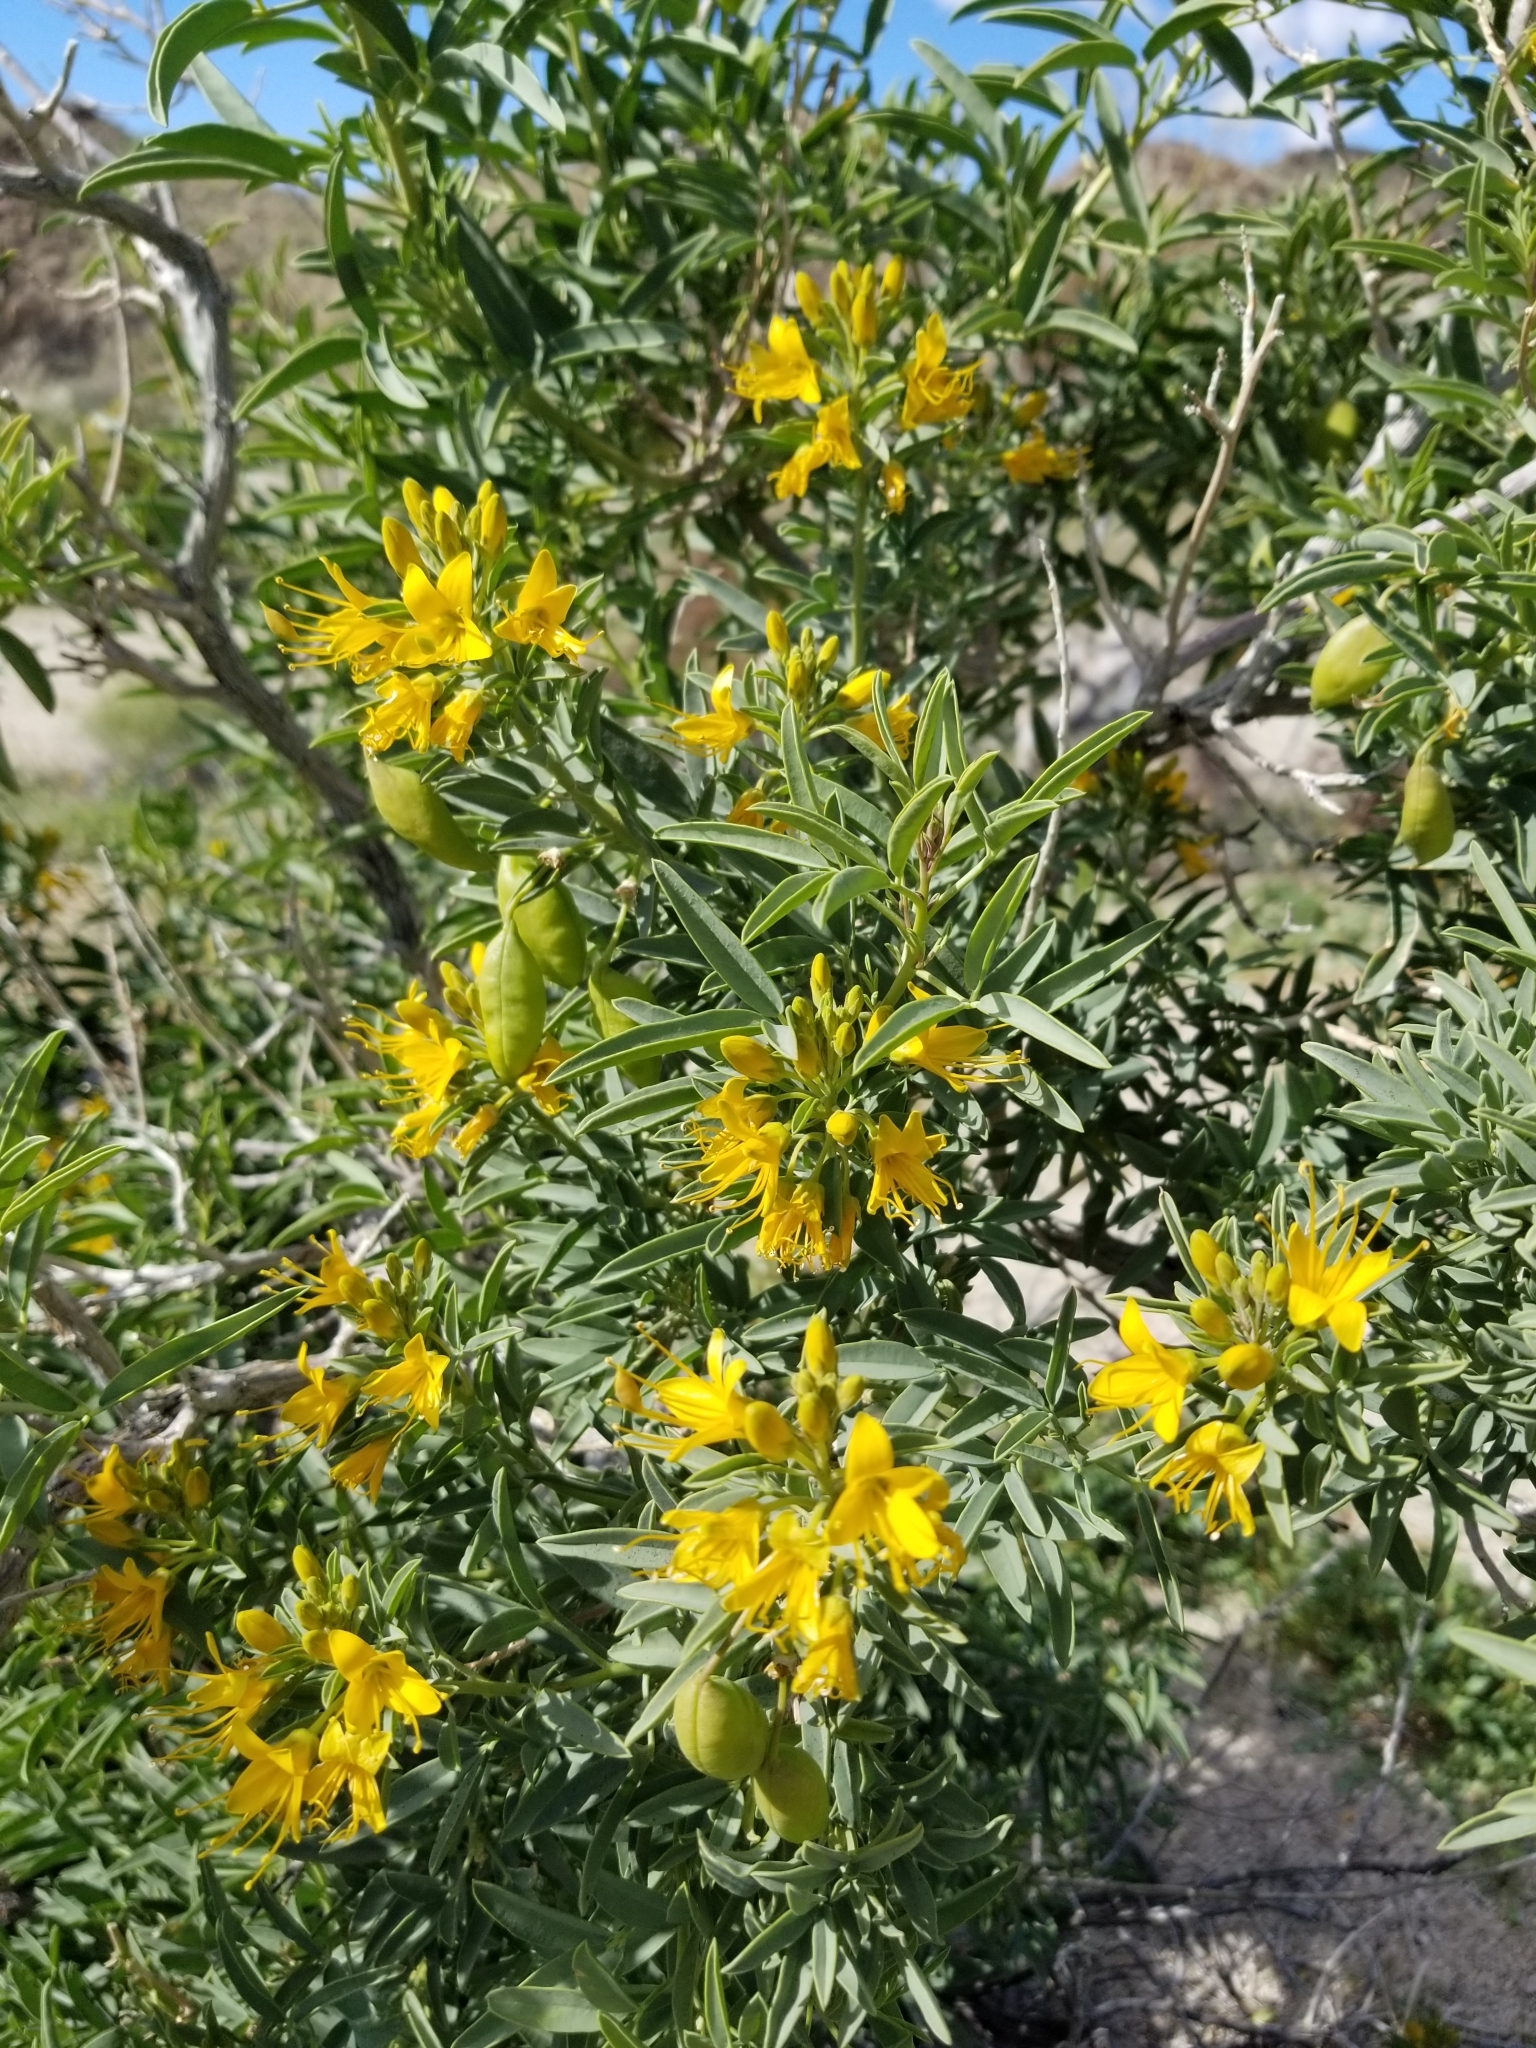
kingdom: Plantae
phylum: Tracheophyta
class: Magnoliopsida
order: Brassicales
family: Cleomaceae
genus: Cleomella
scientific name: Cleomella arborea
